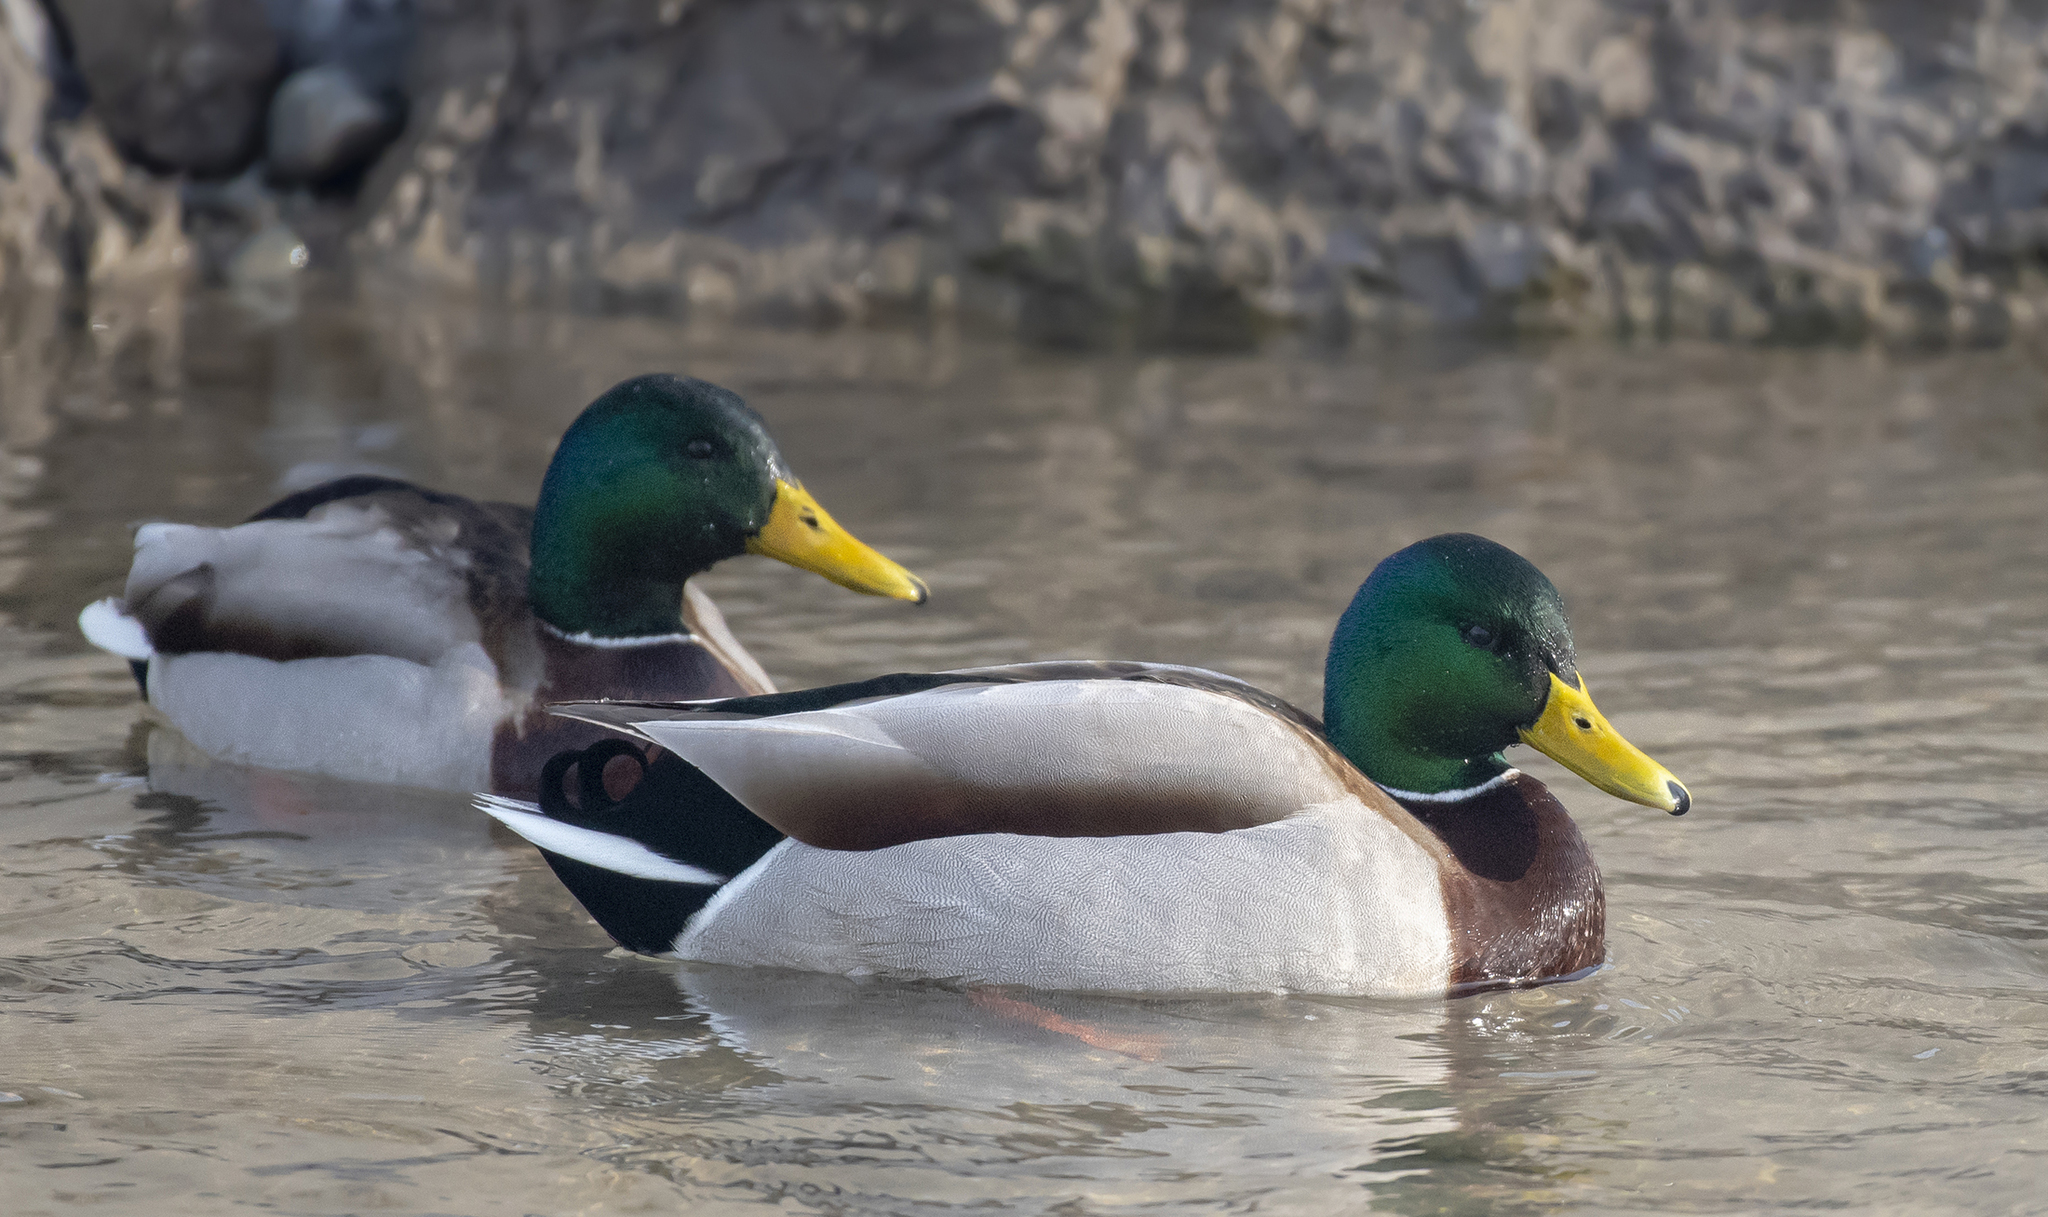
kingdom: Animalia
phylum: Chordata
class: Aves
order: Anseriformes
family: Anatidae
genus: Anas
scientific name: Anas platyrhynchos
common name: Mallard
